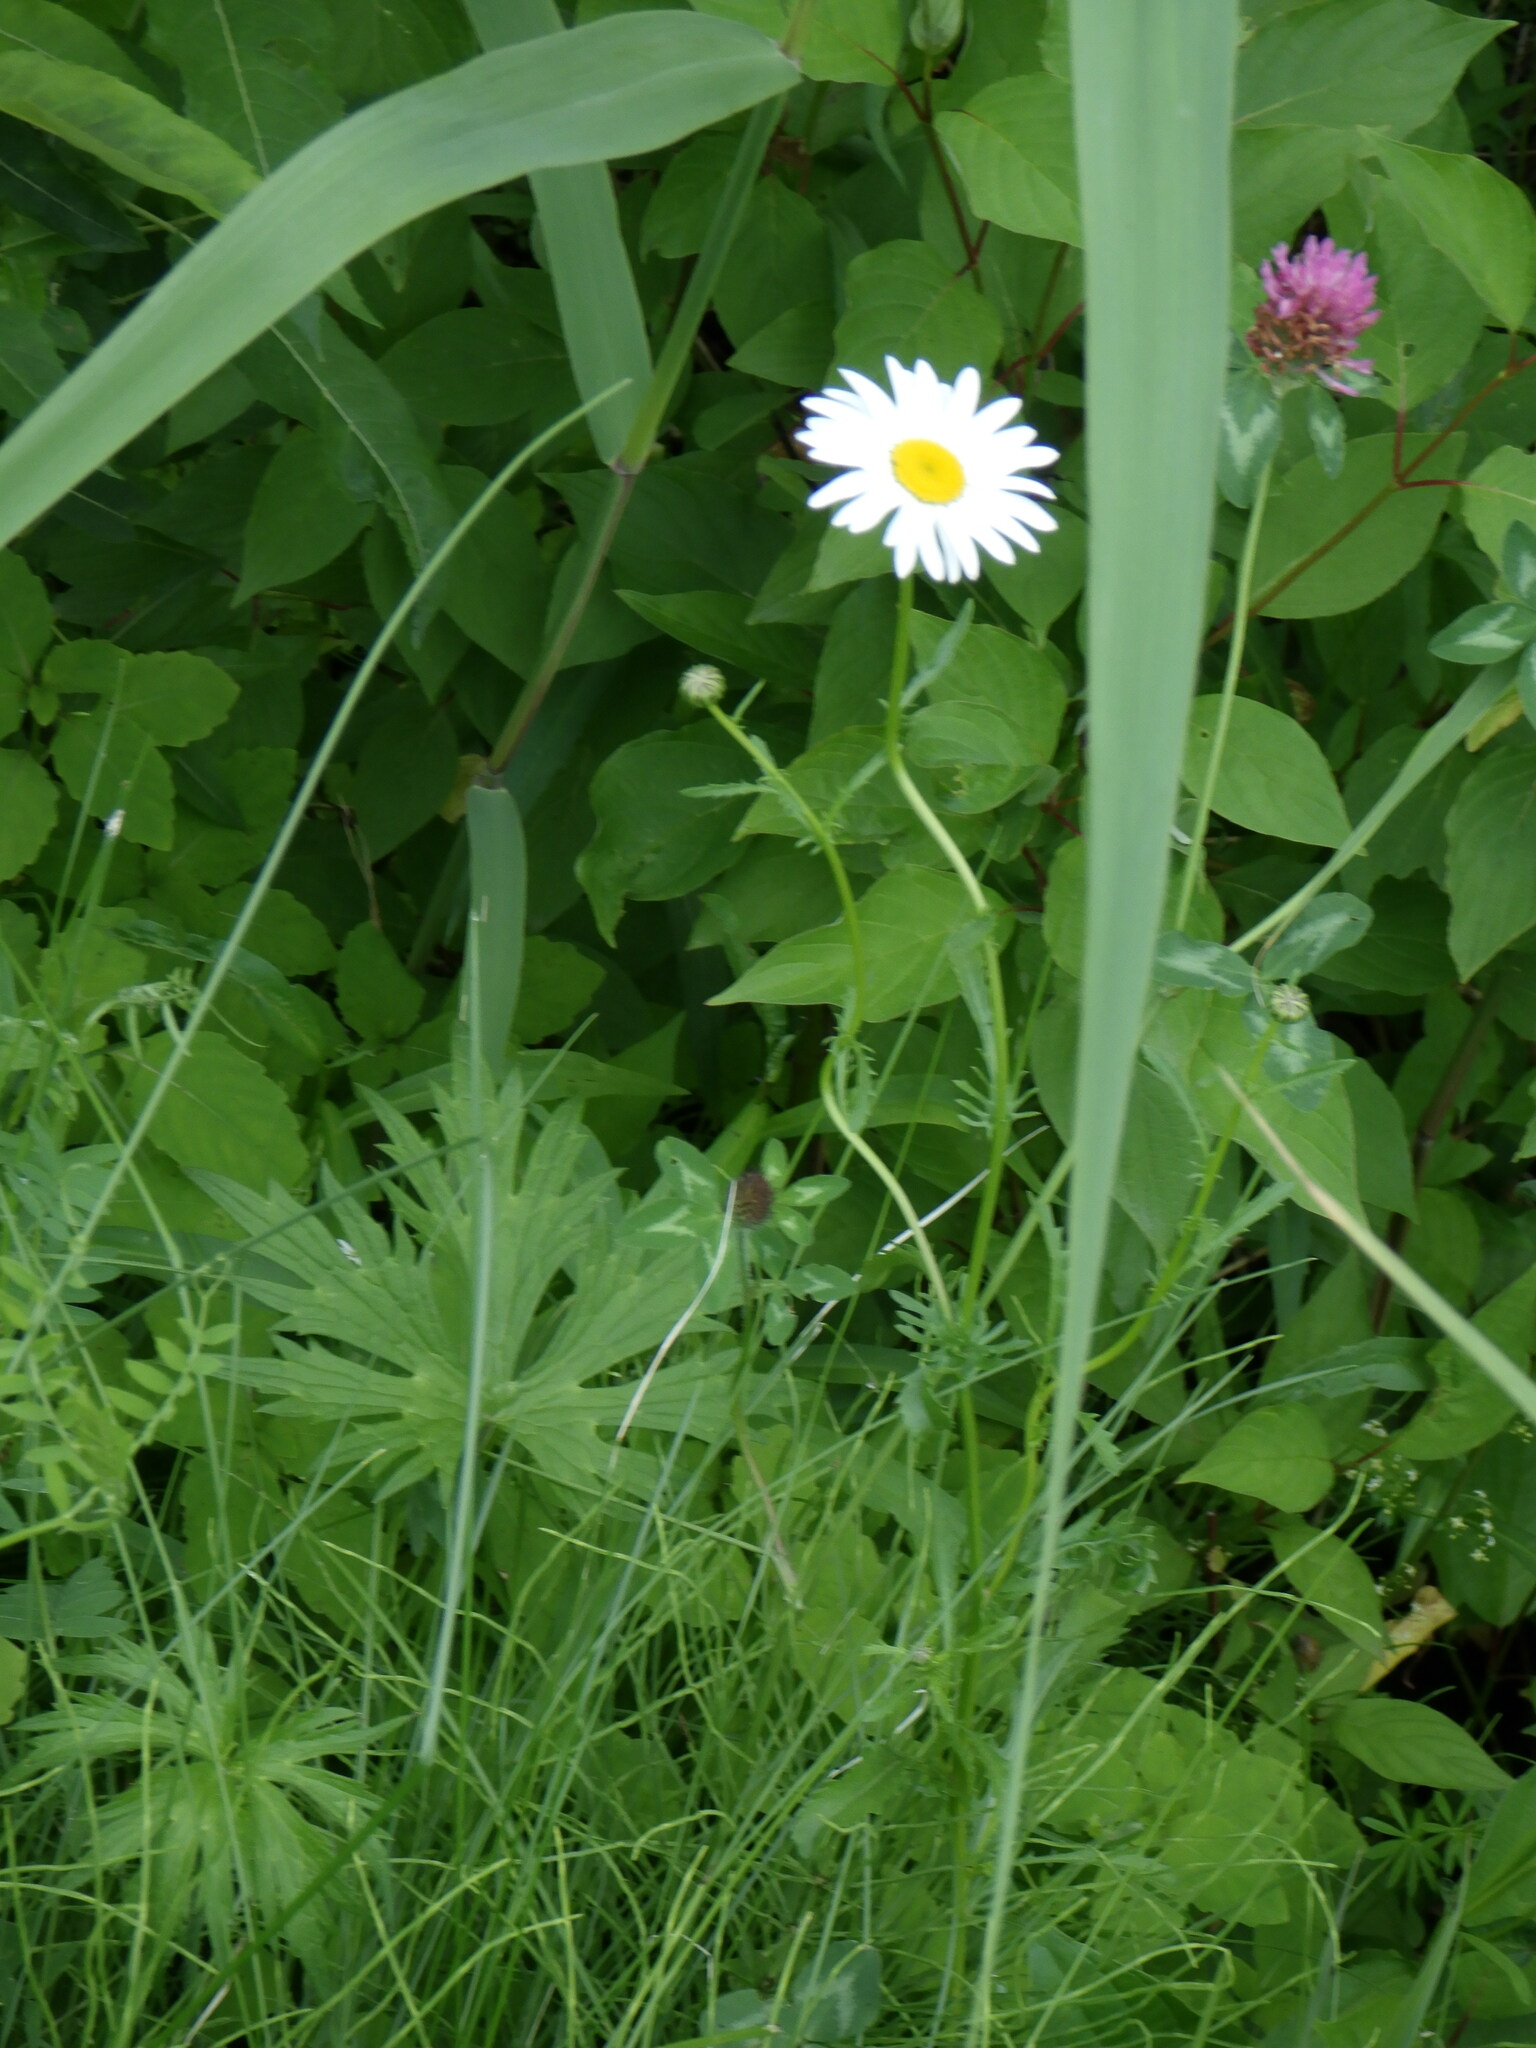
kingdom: Plantae
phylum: Tracheophyta
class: Magnoliopsida
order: Fabales
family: Fabaceae
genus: Trifolium
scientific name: Trifolium pratense
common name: Red clover
